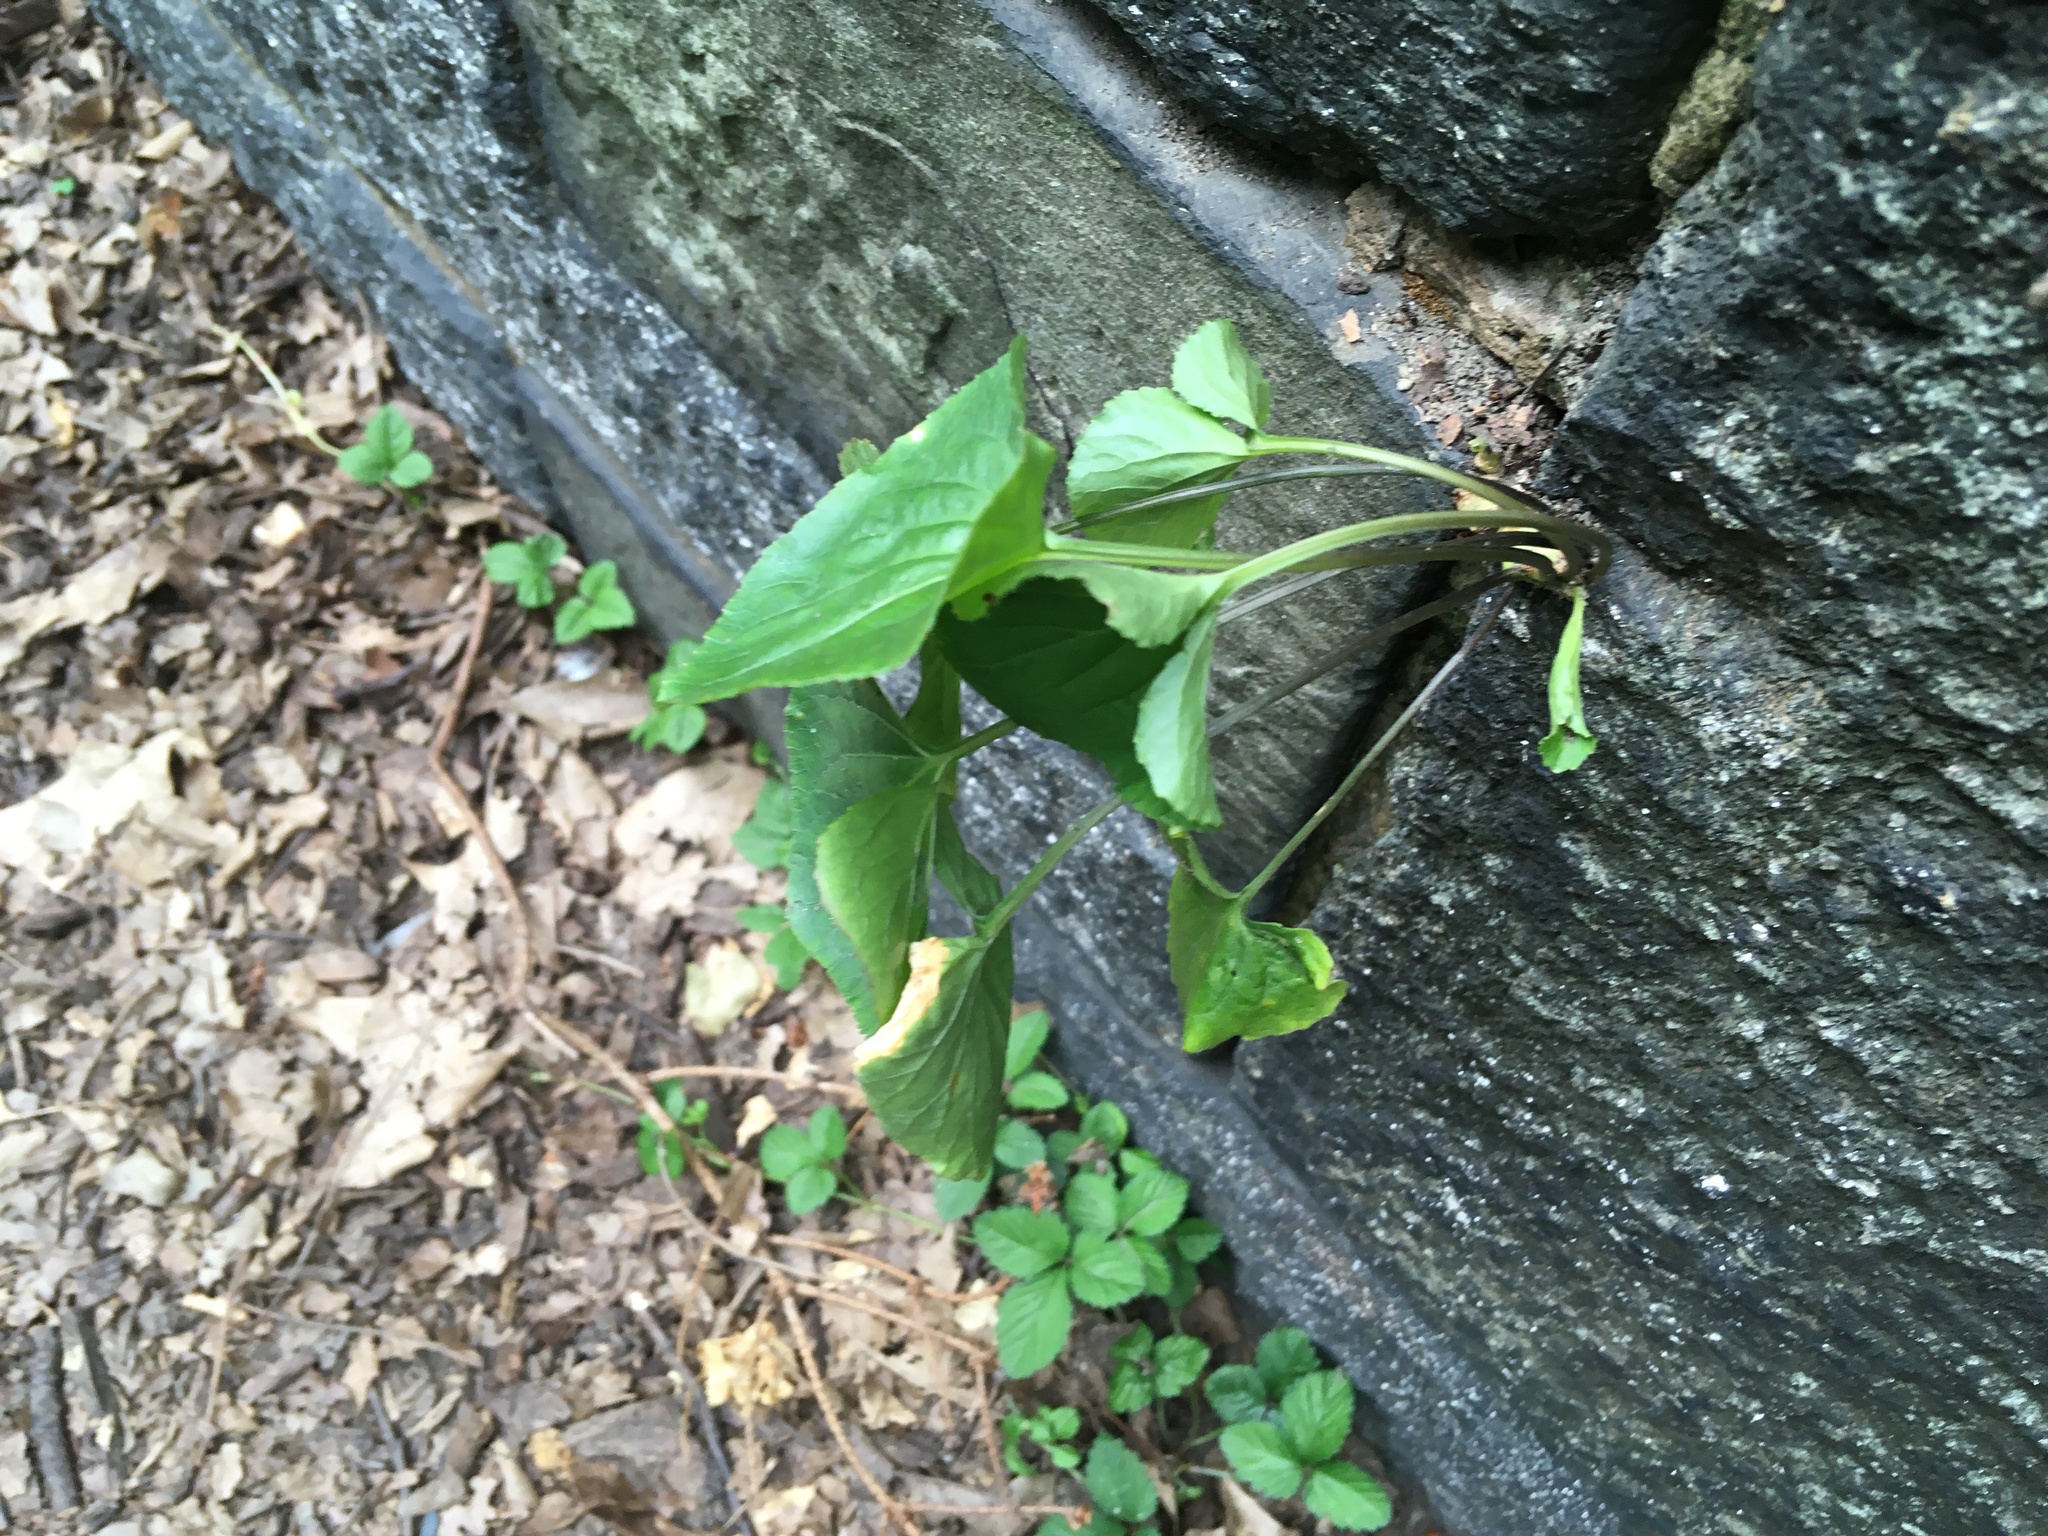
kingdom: Plantae
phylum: Tracheophyta
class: Magnoliopsida
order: Malpighiales
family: Violaceae
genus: Viola
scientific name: Viola sororia
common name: Dooryard violet
